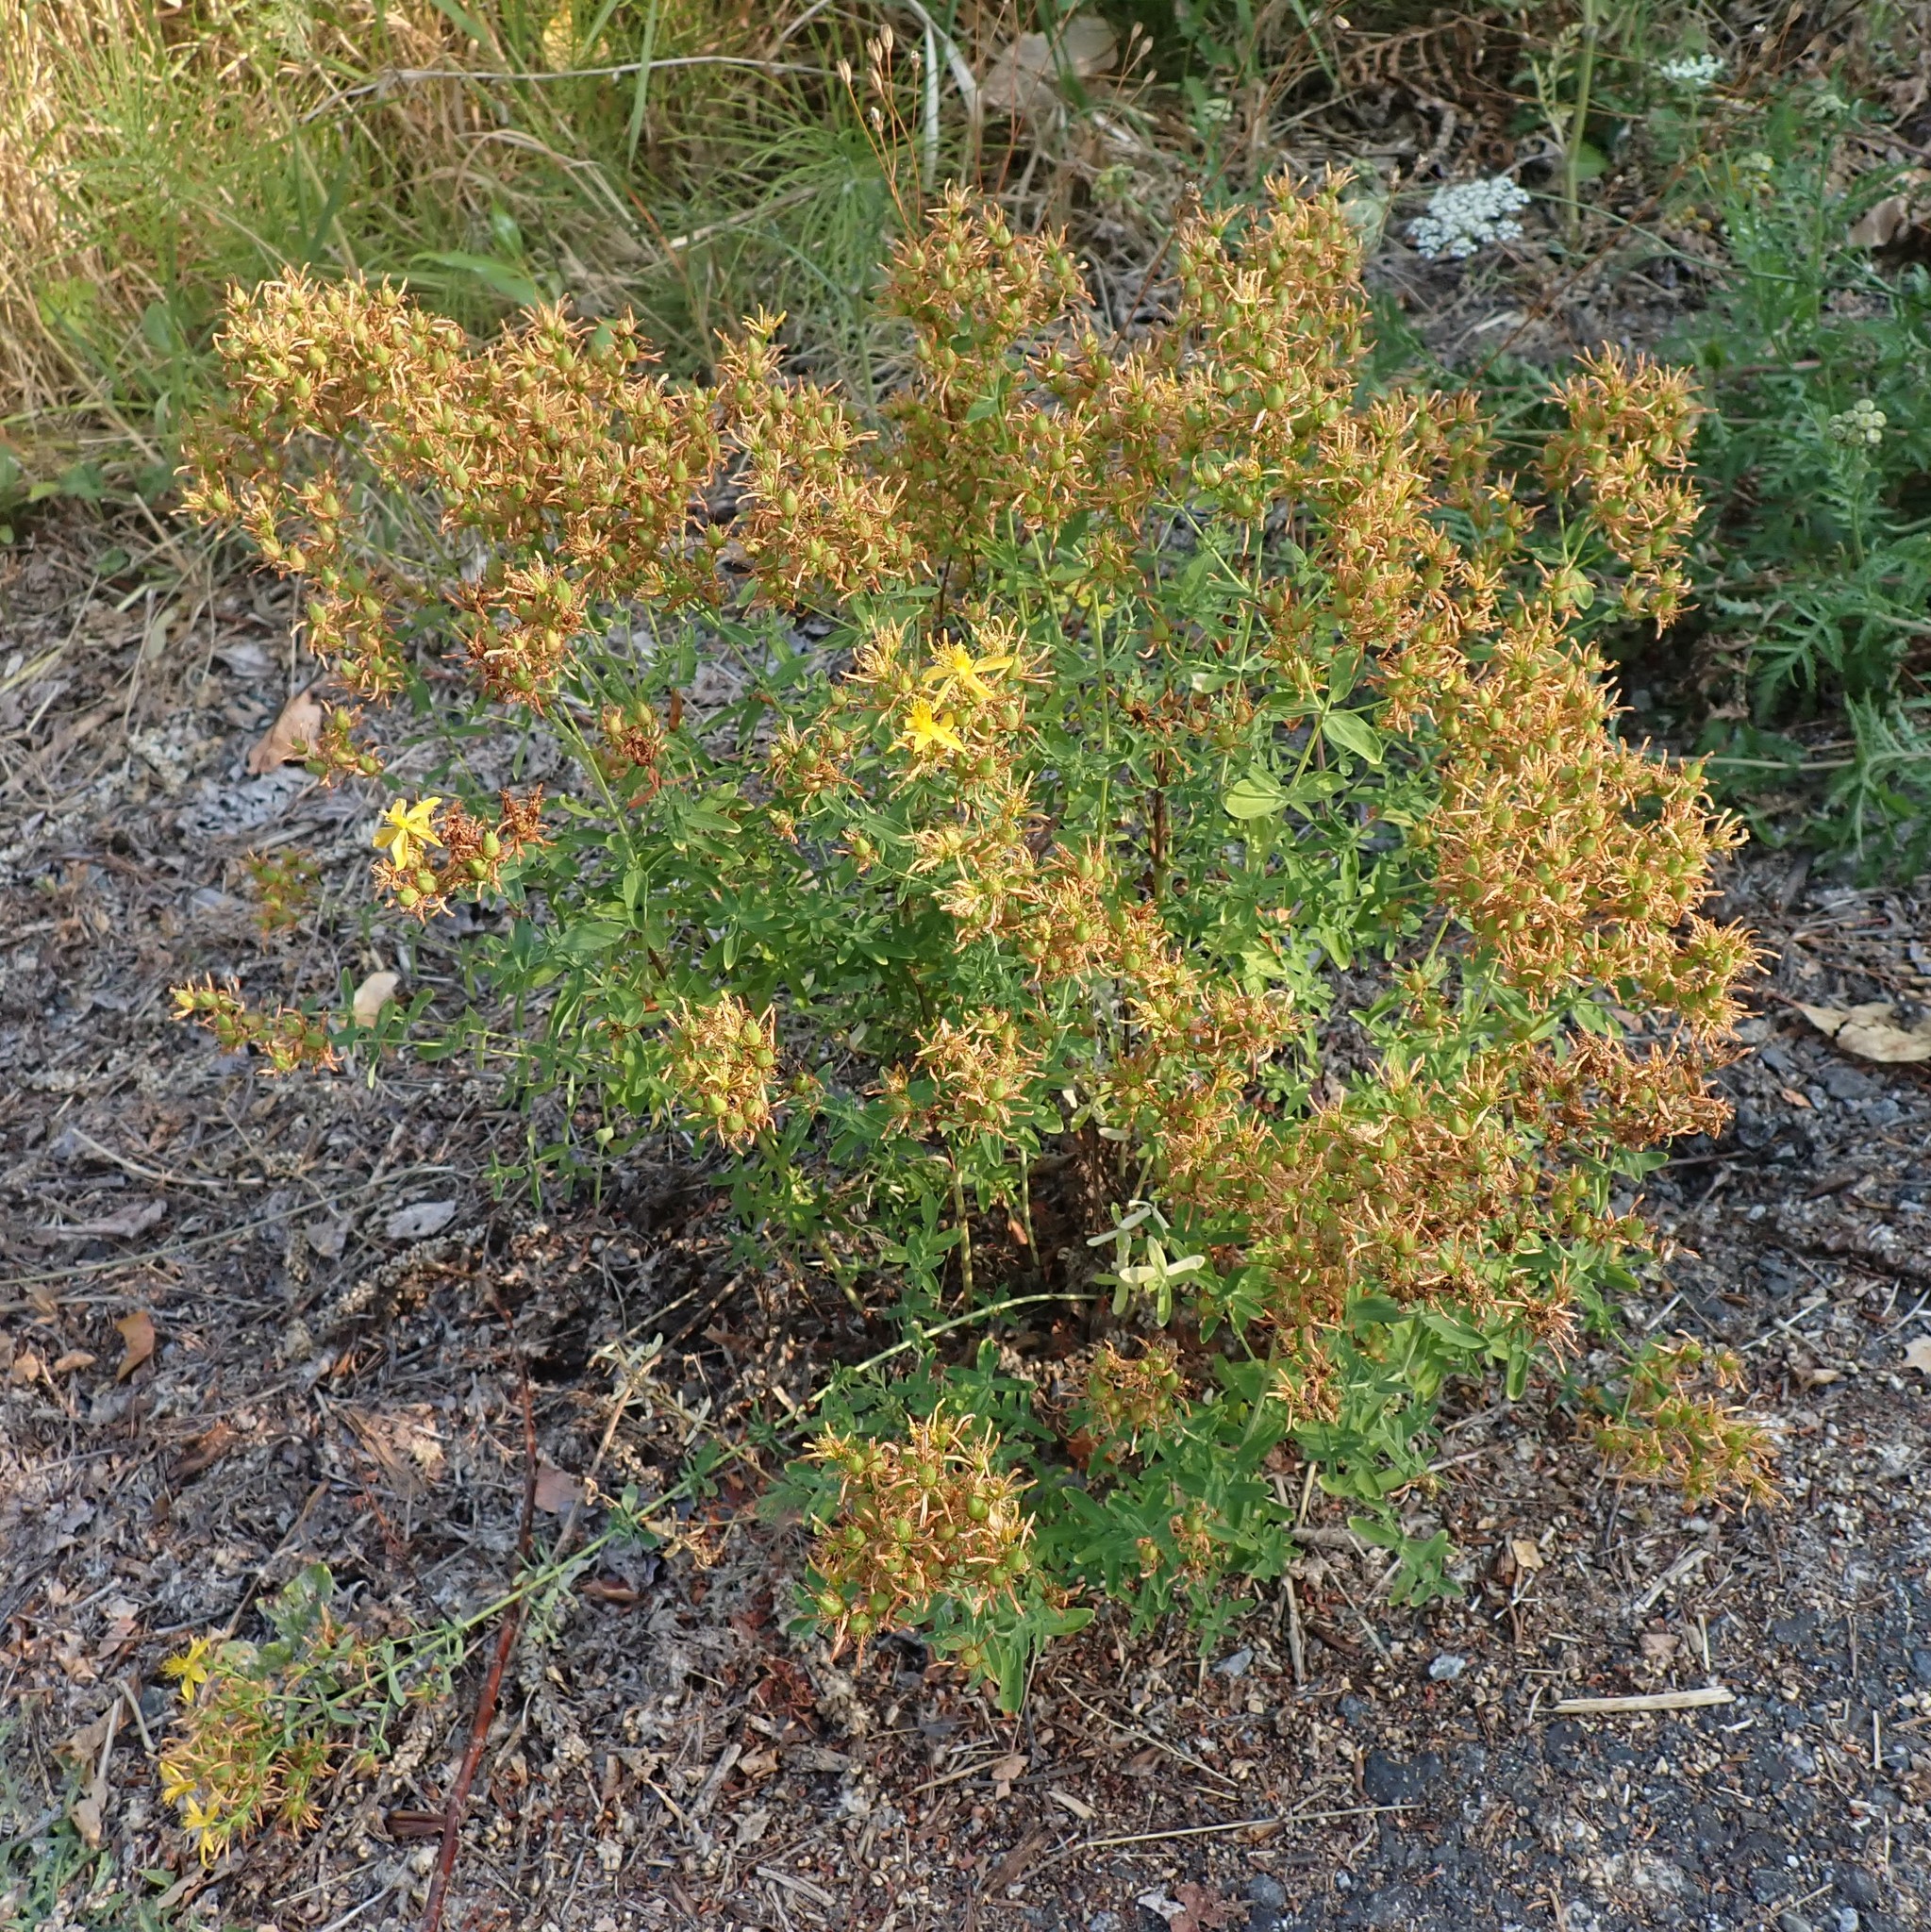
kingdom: Plantae
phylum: Tracheophyta
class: Magnoliopsida
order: Malpighiales
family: Hypericaceae
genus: Hypericum
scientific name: Hypericum perforatum
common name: Common st. johnswort
